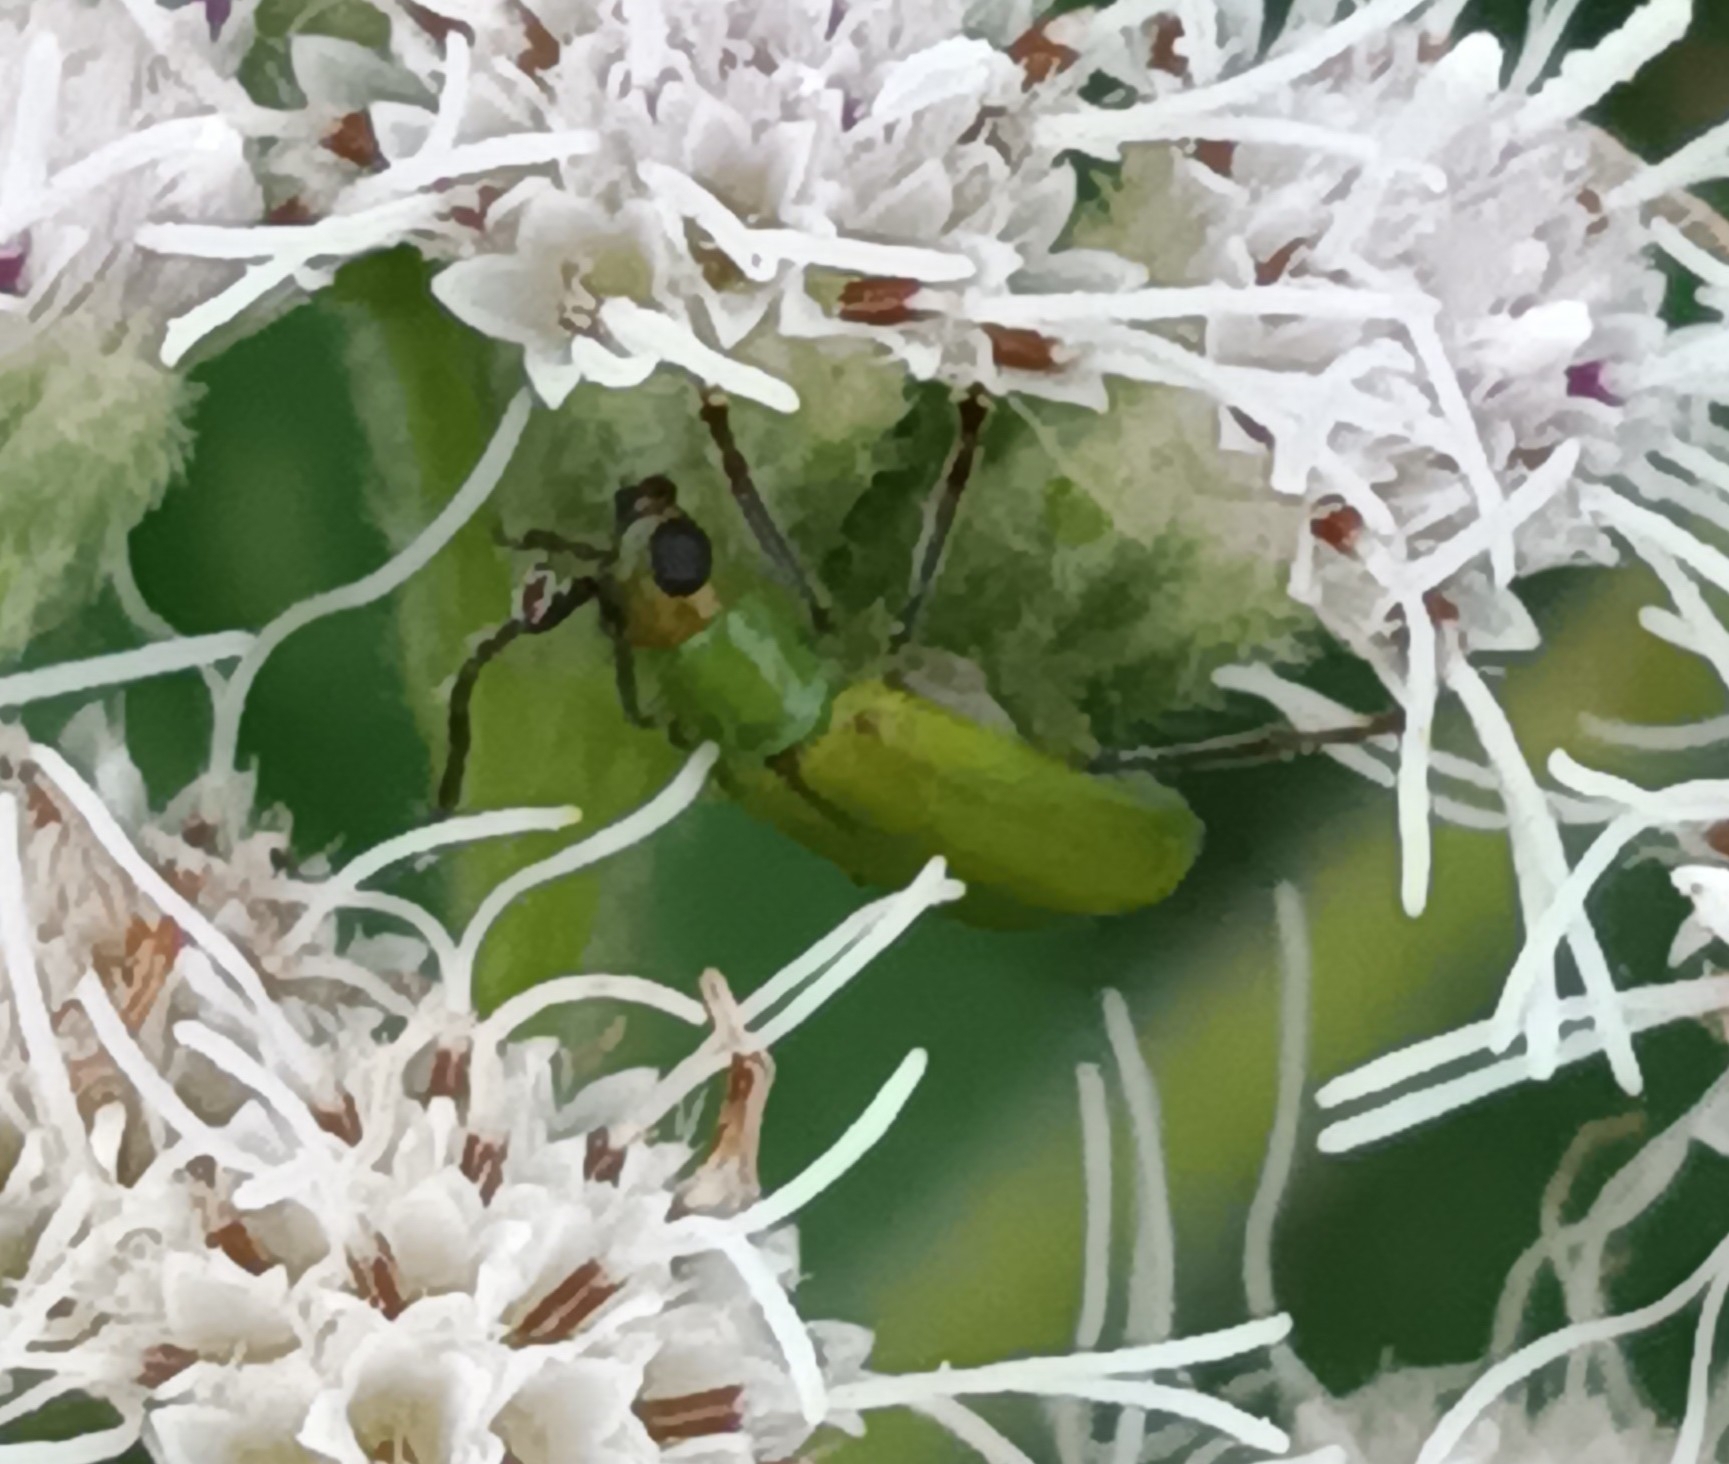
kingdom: Animalia
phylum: Arthropoda
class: Insecta
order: Coleoptera
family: Chrysomelidae
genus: Diabrotica
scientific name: Diabrotica barberi
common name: Northern corn rootworm
